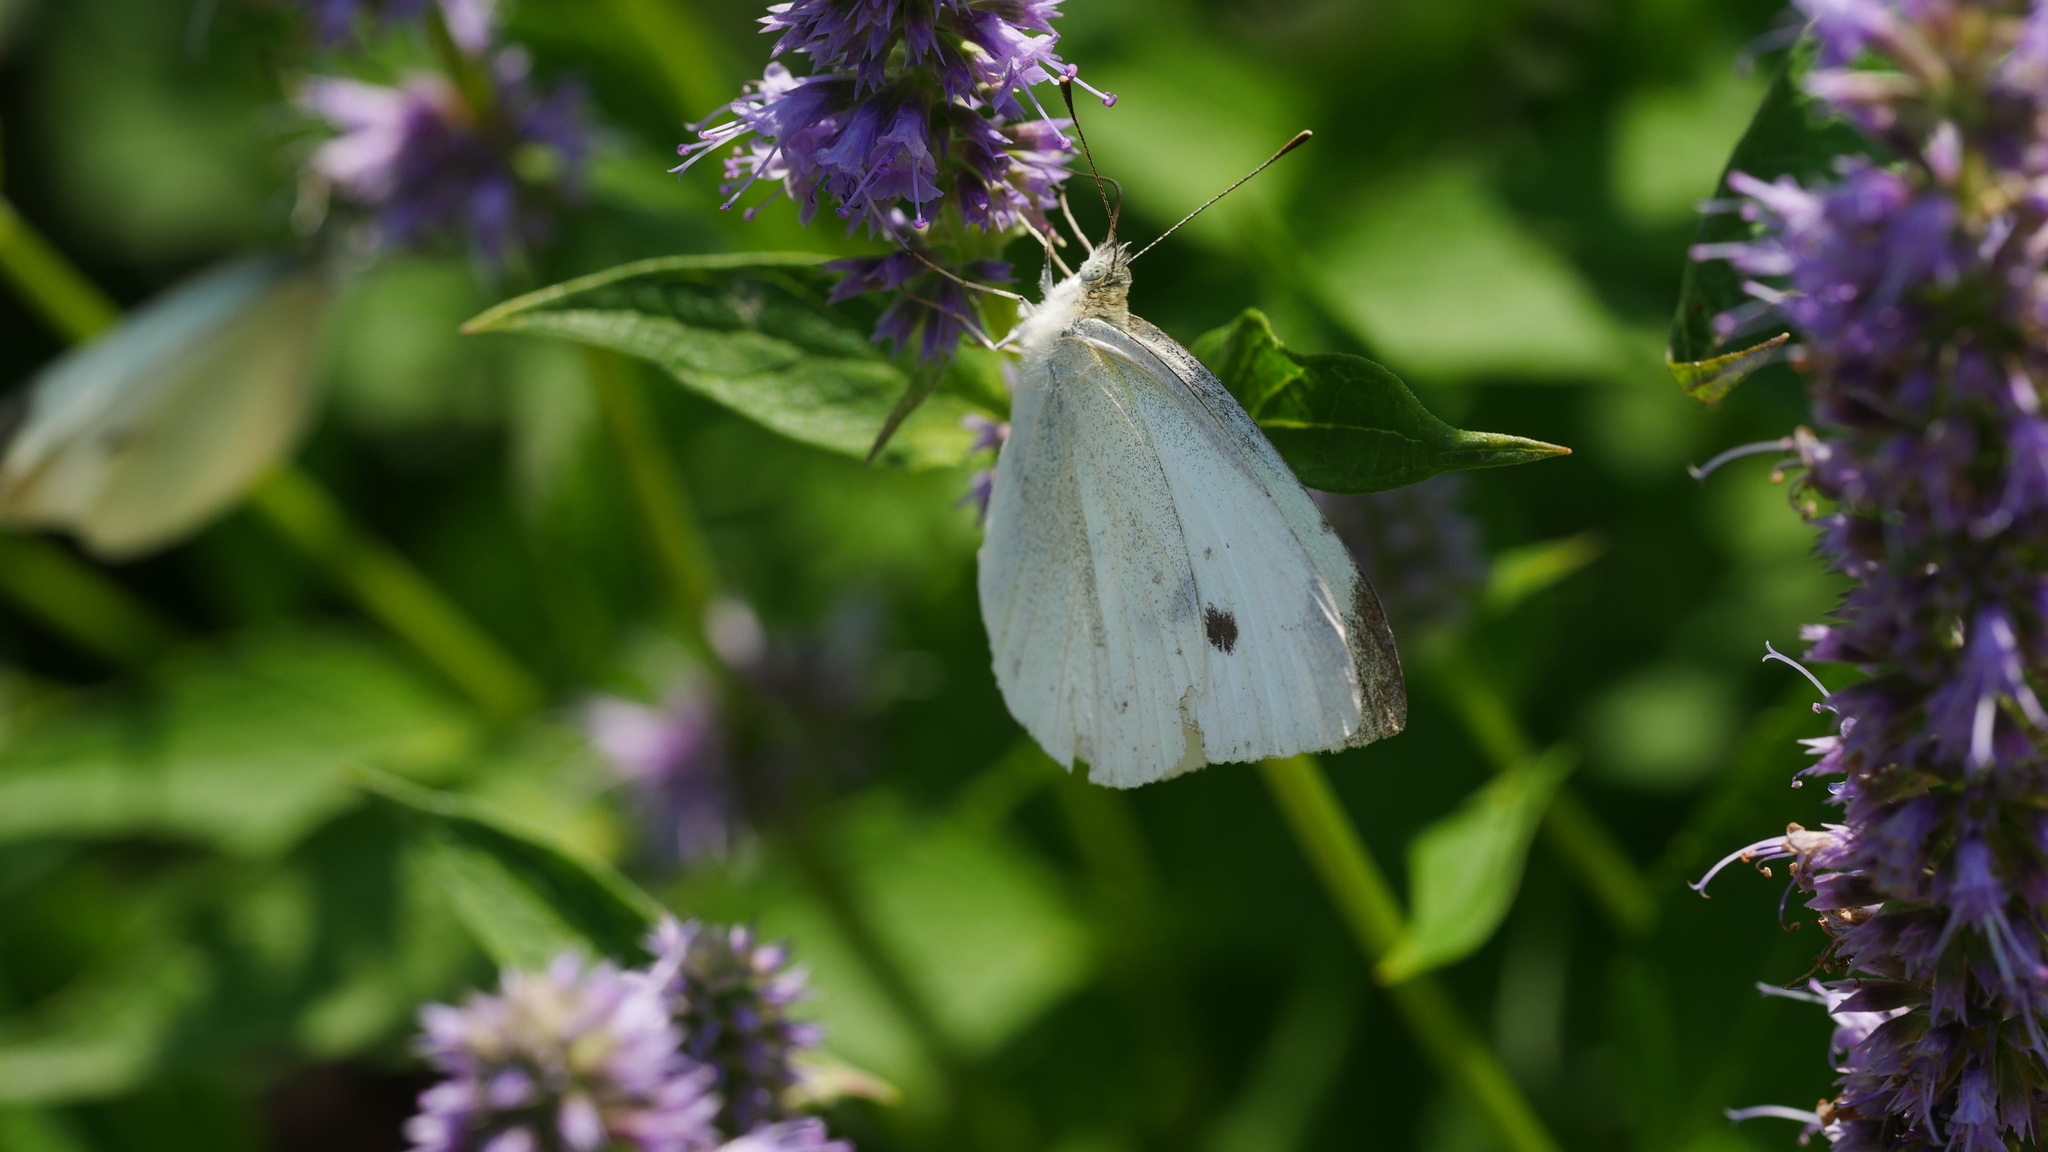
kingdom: Animalia
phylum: Arthropoda
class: Insecta
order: Lepidoptera
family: Pieridae
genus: Pieris
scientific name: Pieris rapae
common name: Small white
